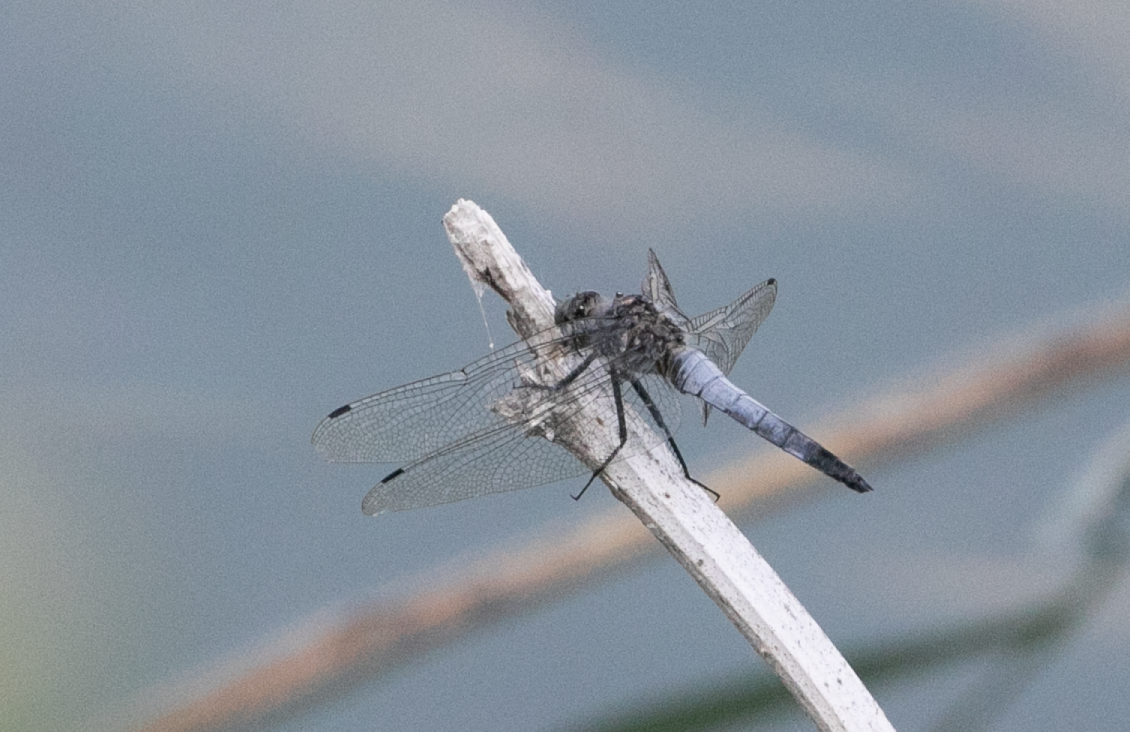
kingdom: Animalia
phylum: Arthropoda
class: Insecta
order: Odonata
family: Libellulidae
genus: Orthetrum
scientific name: Orthetrum cancellatum
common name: Black-tailed skimmer
